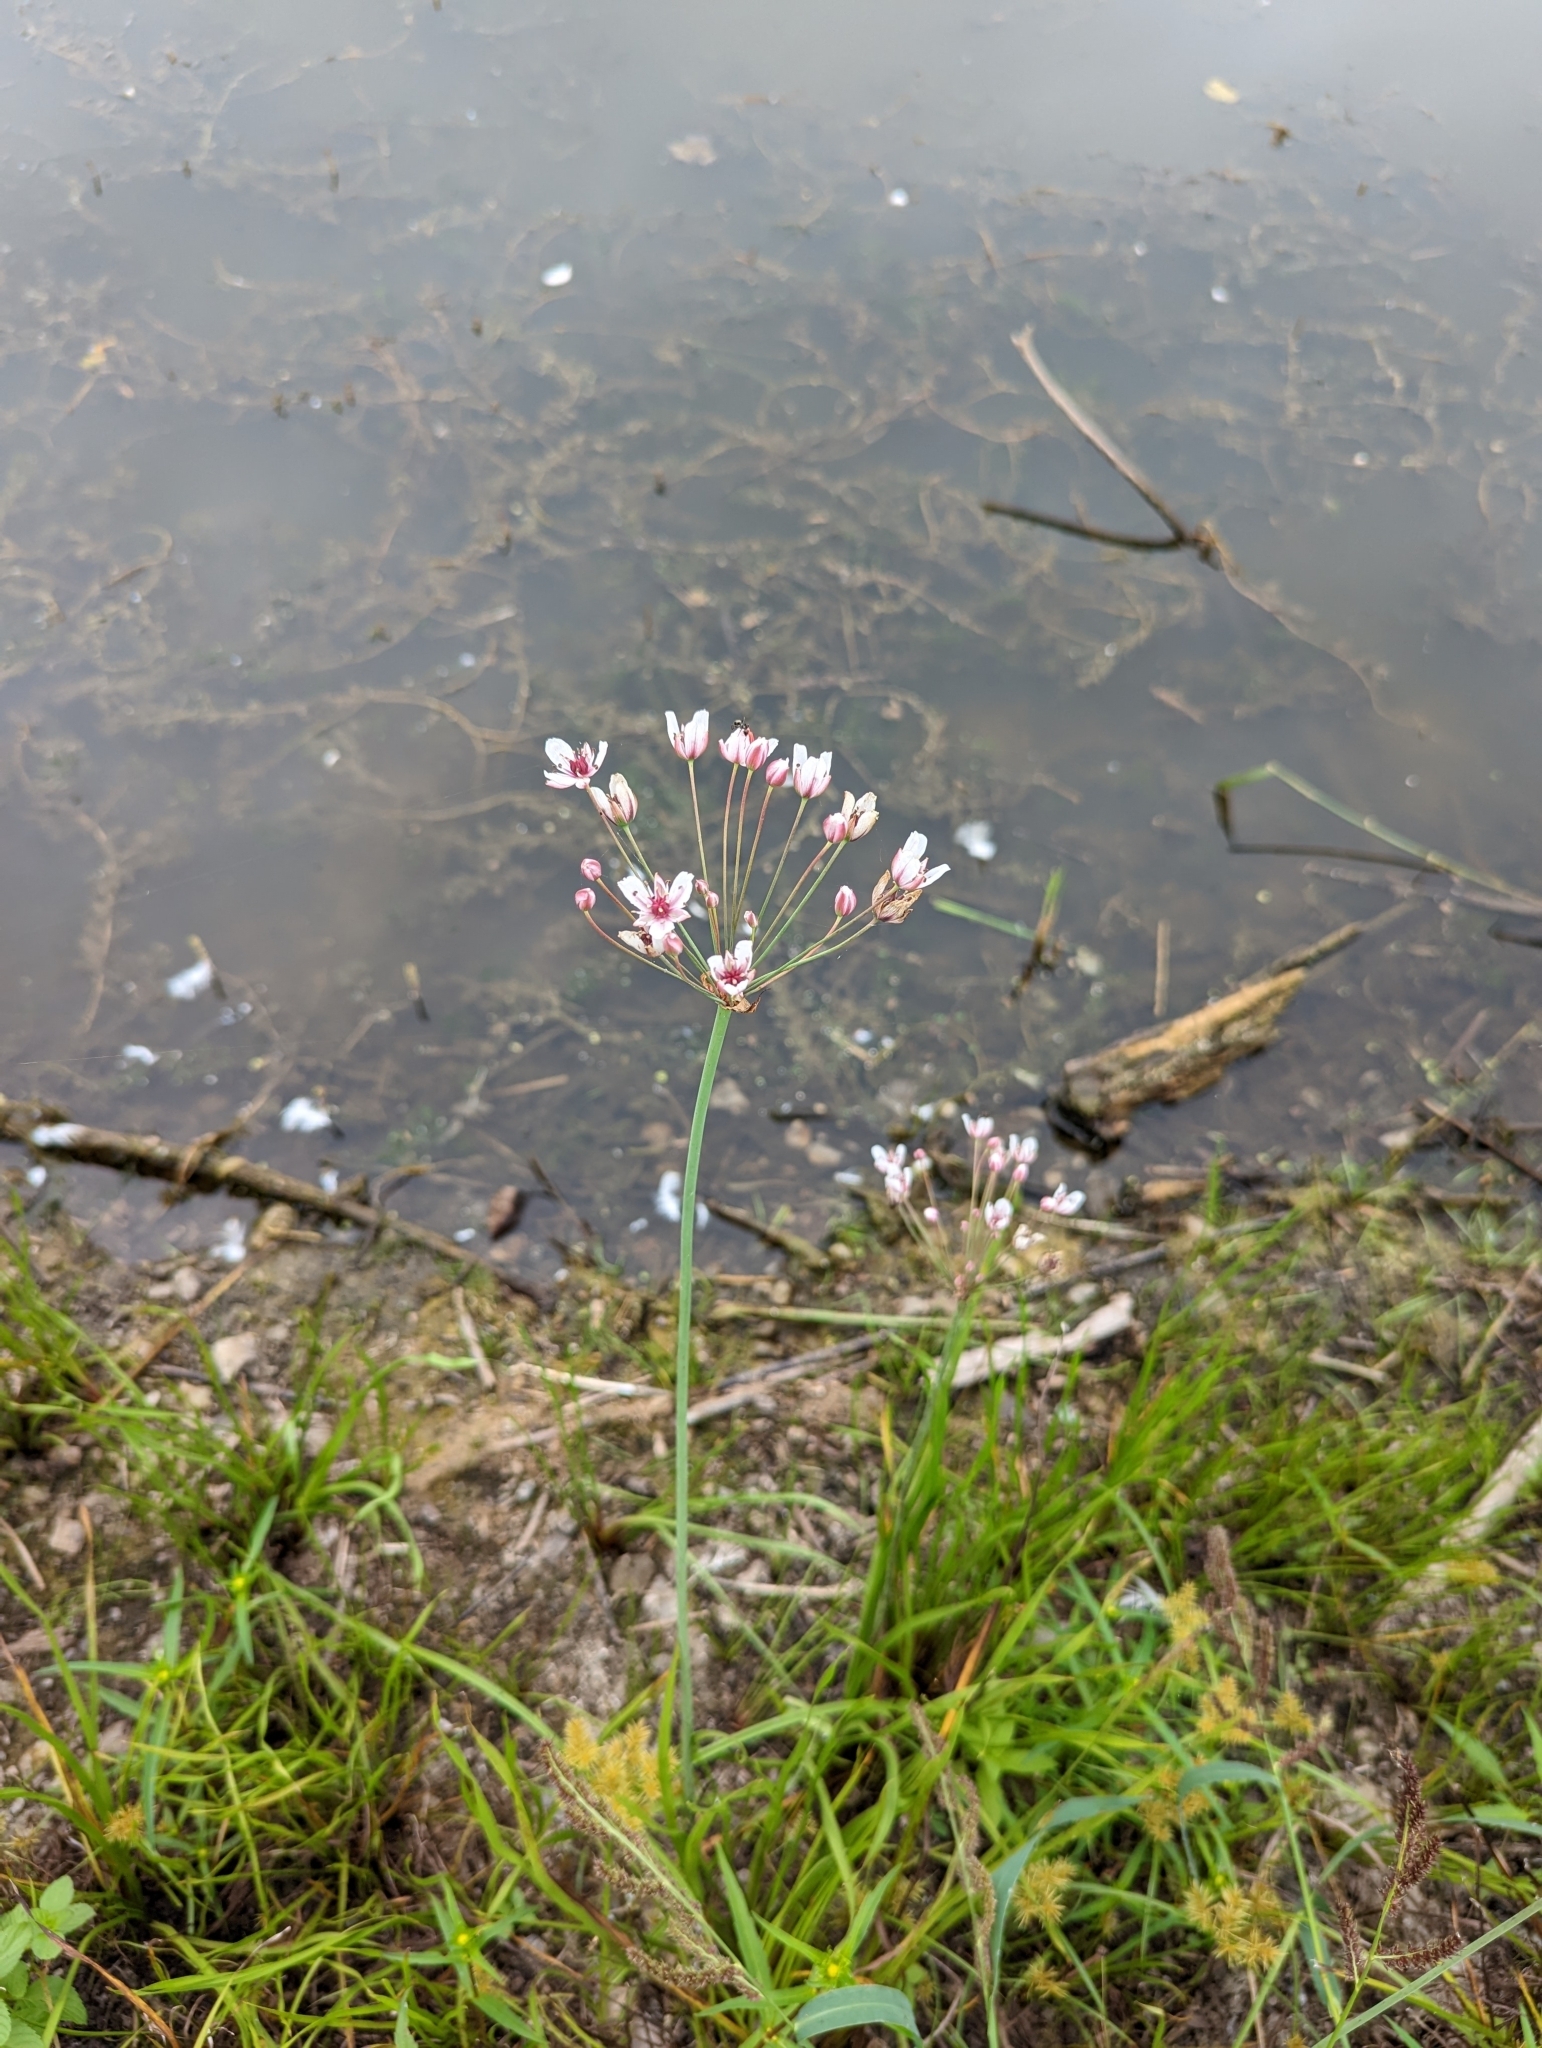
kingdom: Plantae
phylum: Tracheophyta
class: Liliopsida
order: Alismatales
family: Butomaceae
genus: Butomus
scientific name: Butomus umbellatus
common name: Flowering-rush
